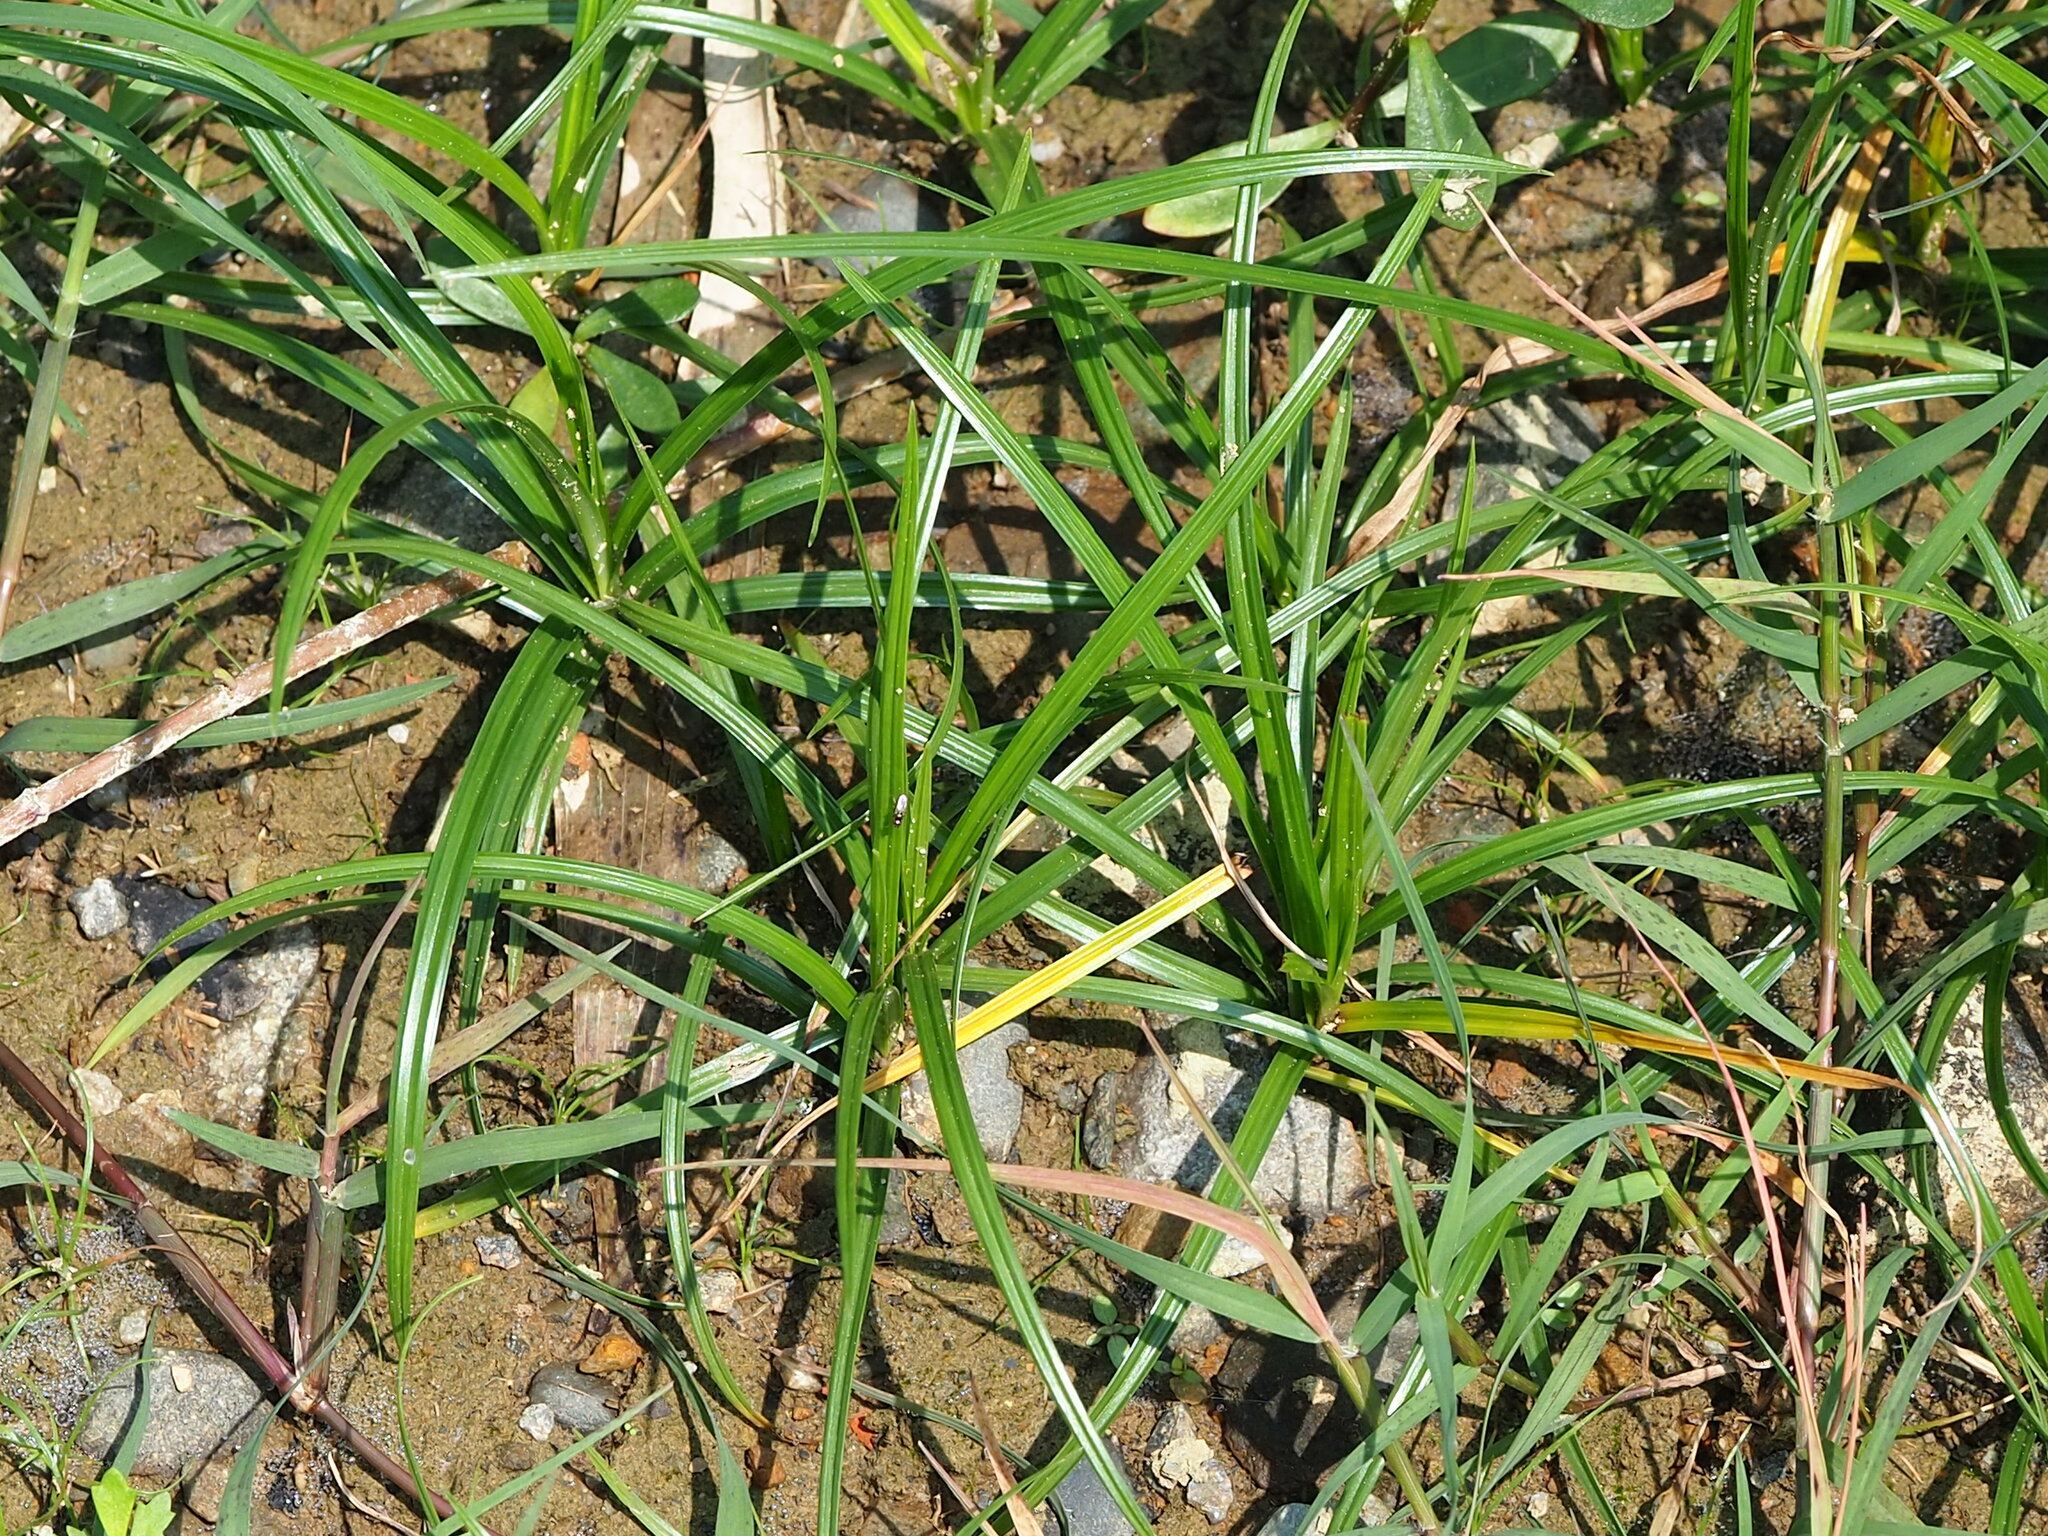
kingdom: Plantae
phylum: Tracheophyta
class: Liliopsida
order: Poales
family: Cyperaceae
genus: Cyperus
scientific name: Cyperus rotundus
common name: Nutgrass
